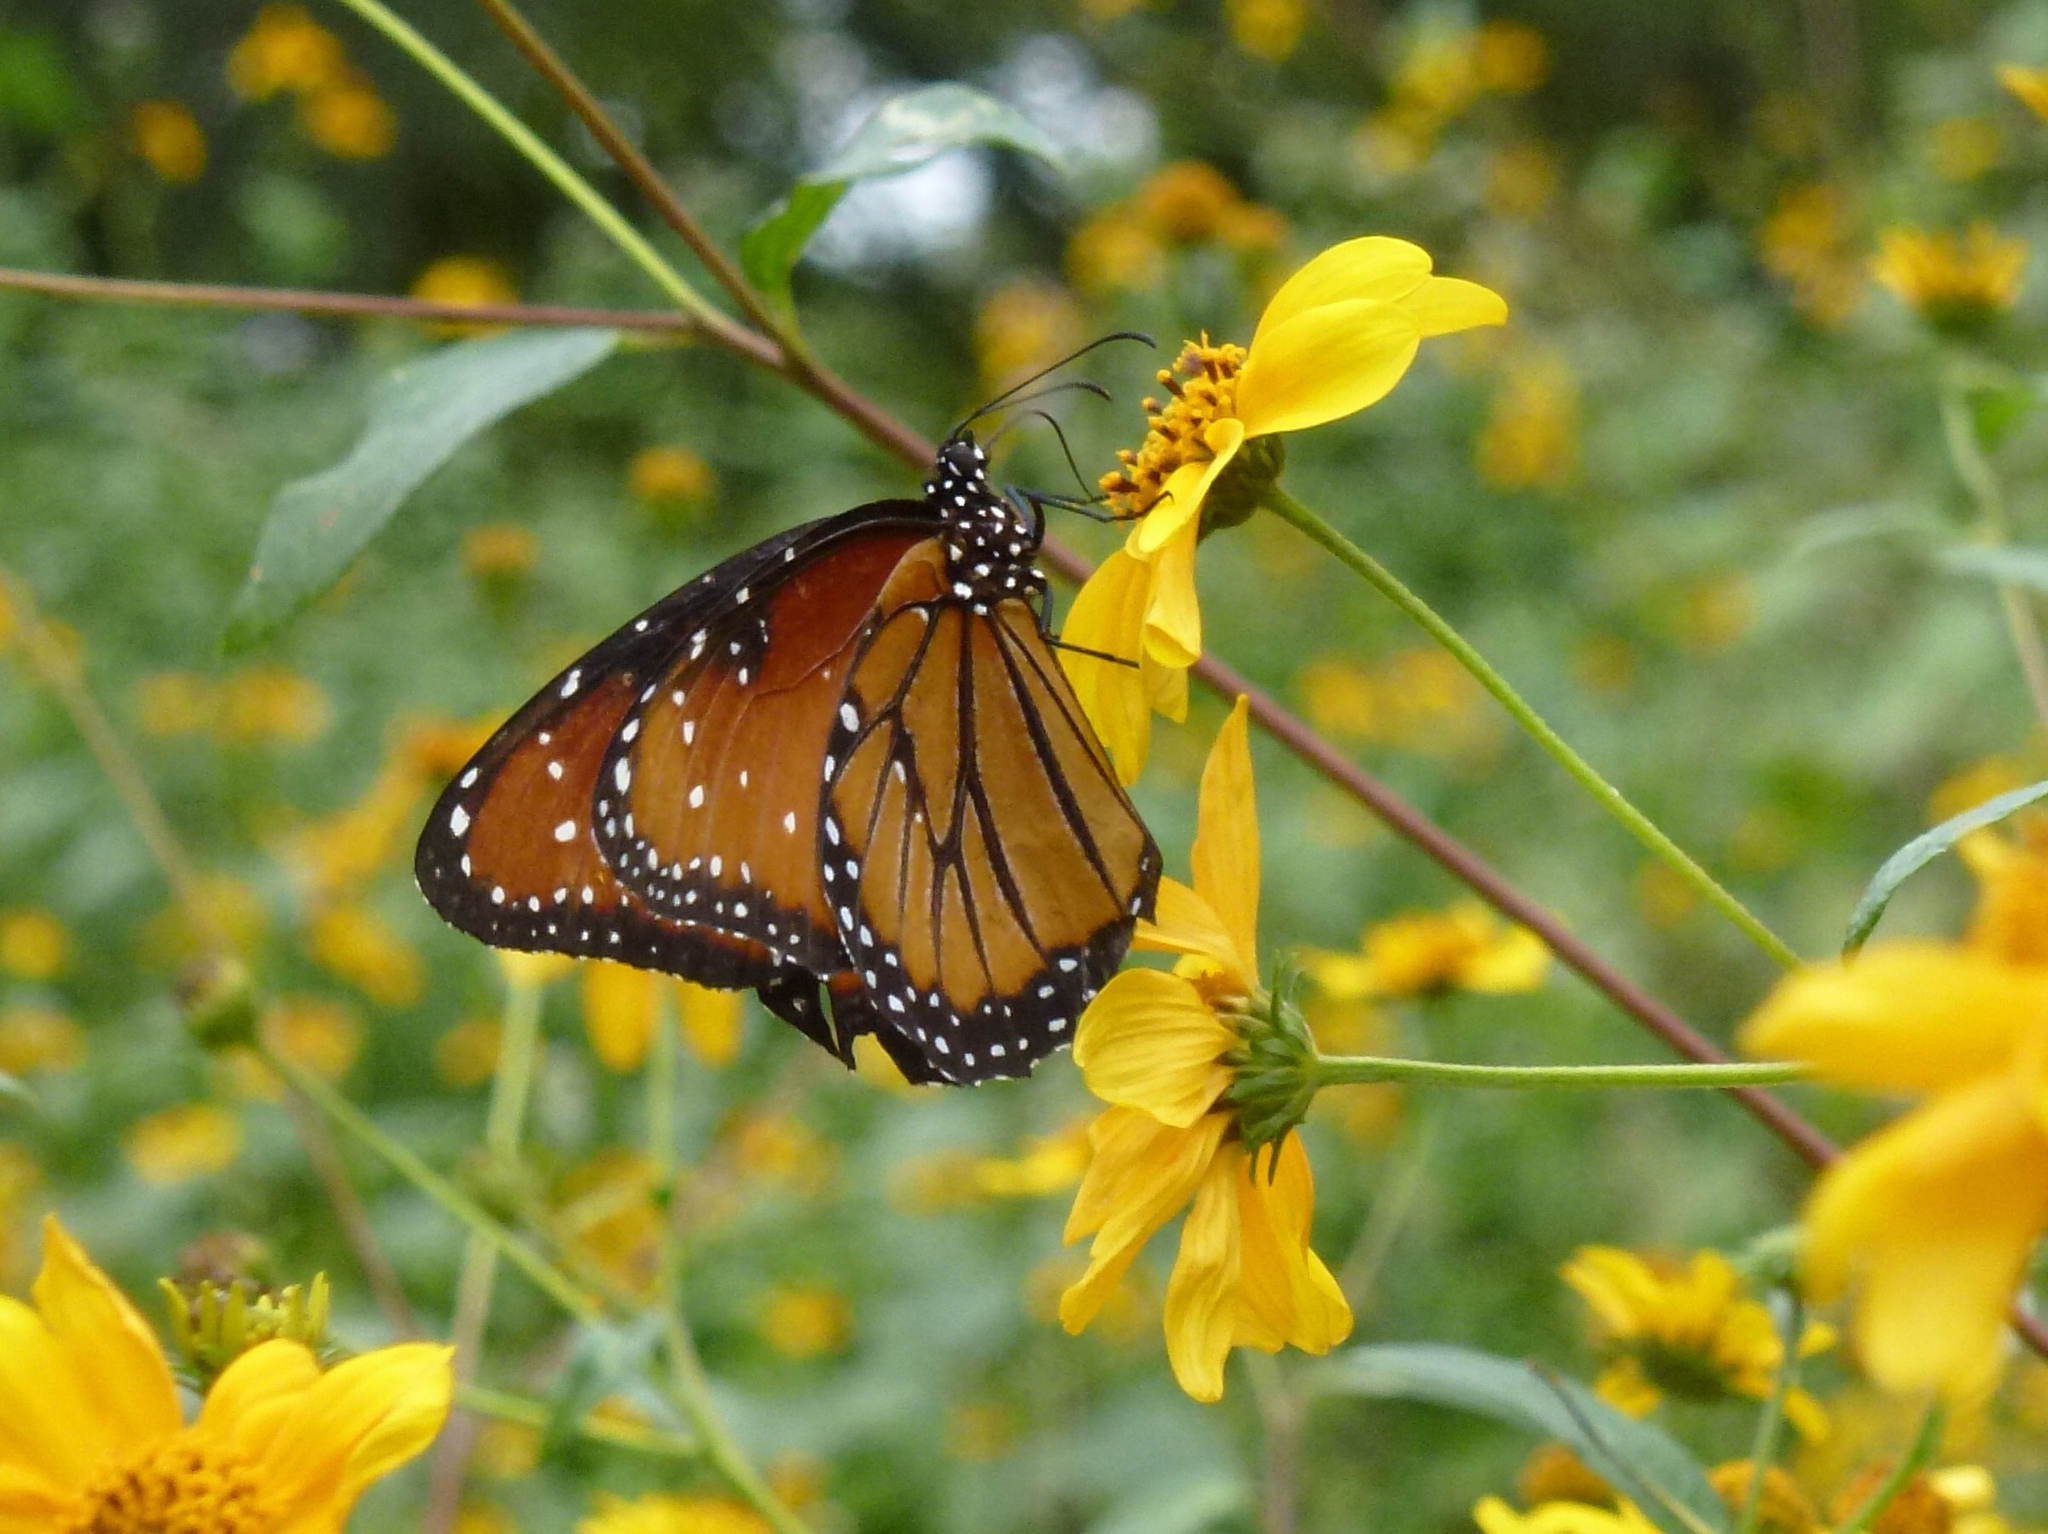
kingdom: Animalia
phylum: Arthropoda
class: Insecta
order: Lepidoptera
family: Nymphalidae
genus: Danaus
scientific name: Danaus gilippus
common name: Queen
